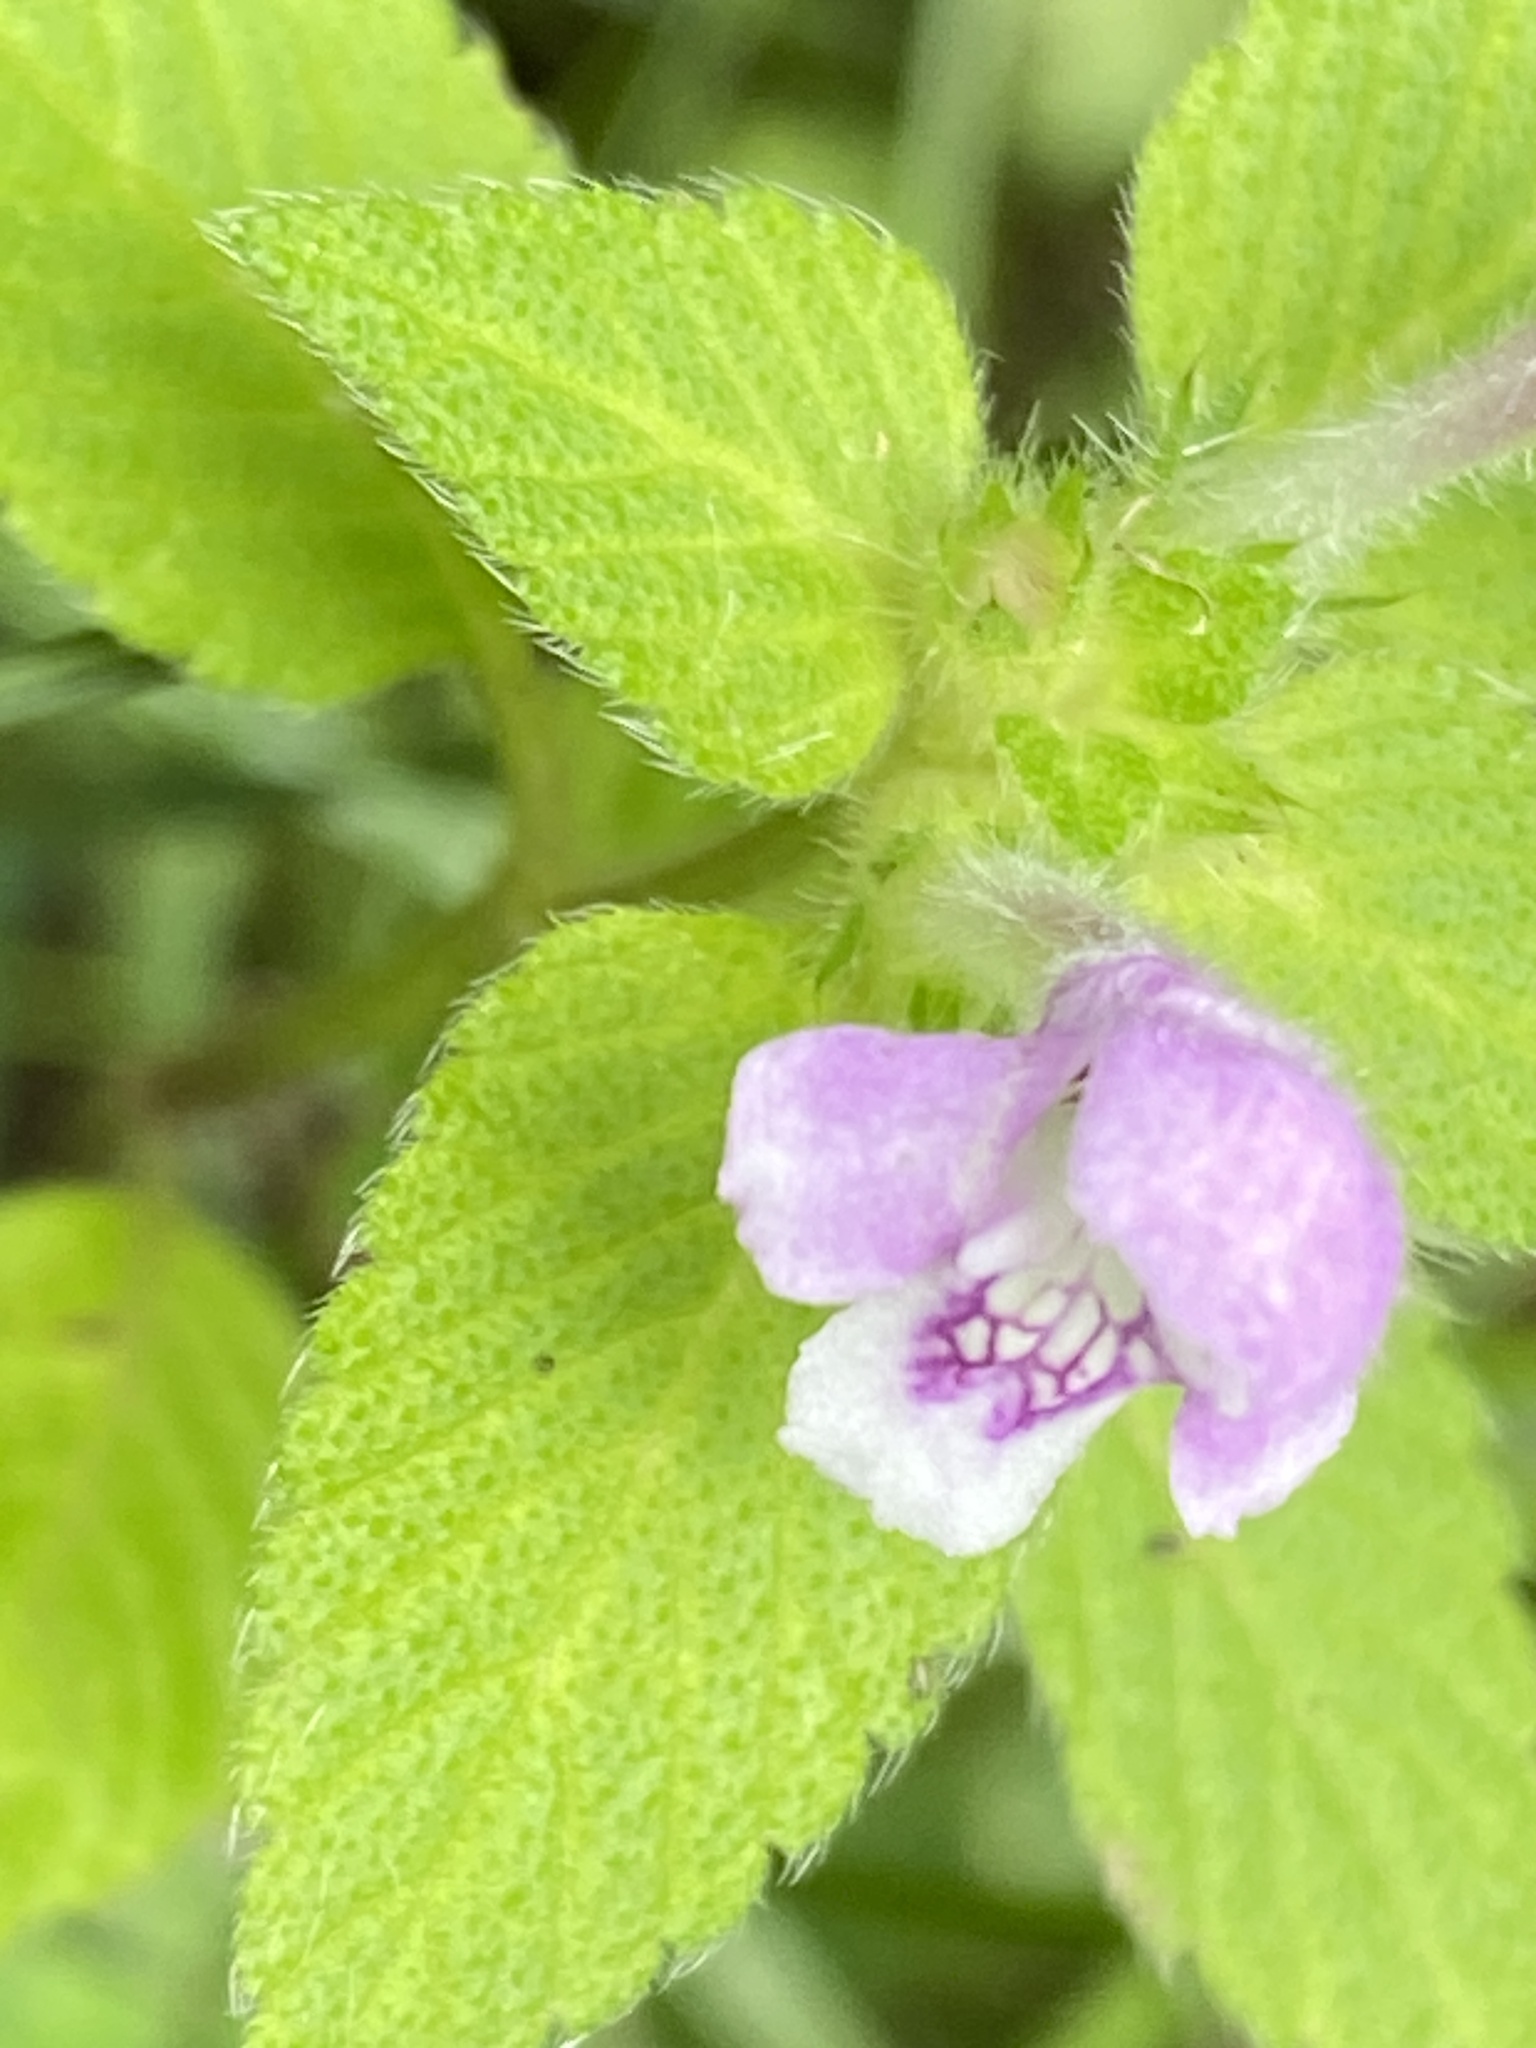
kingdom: Plantae
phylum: Tracheophyta
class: Magnoliopsida
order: Lamiales
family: Lamiaceae
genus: Galeopsis
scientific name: Galeopsis tetrahit
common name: Common hemp-nettle
